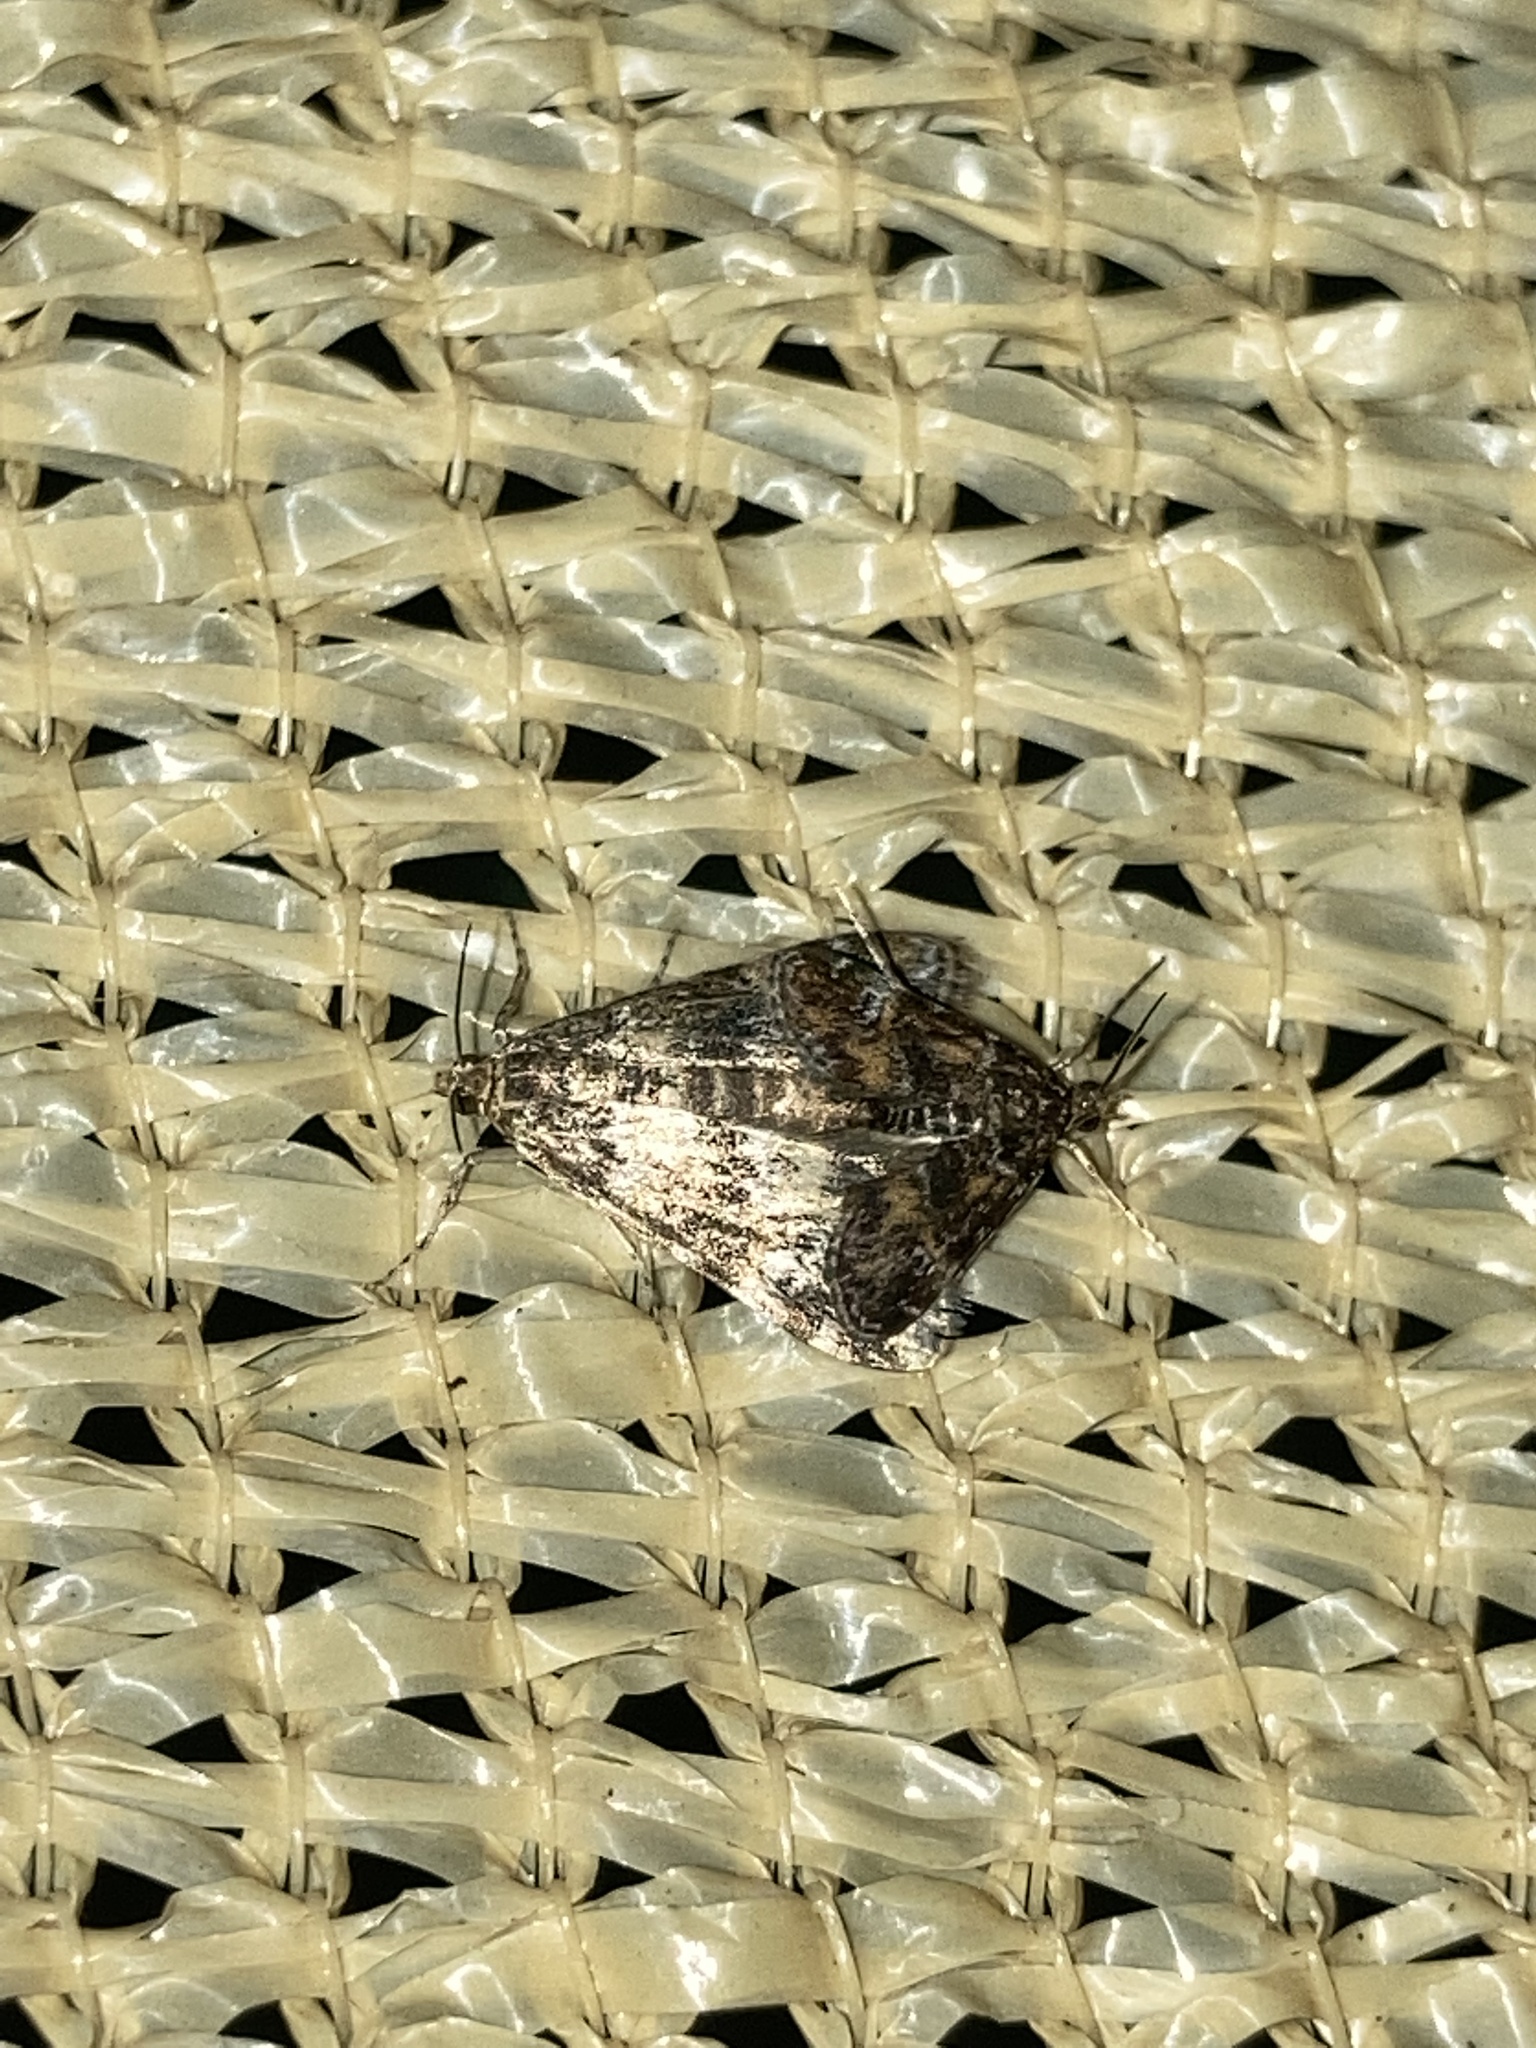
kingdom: Animalia
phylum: Arthropoda
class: Insecta
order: Lepidoptera
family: Crambidae
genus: Elophila
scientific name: Elophila obliteralis
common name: Waterlily leafcutter moth
